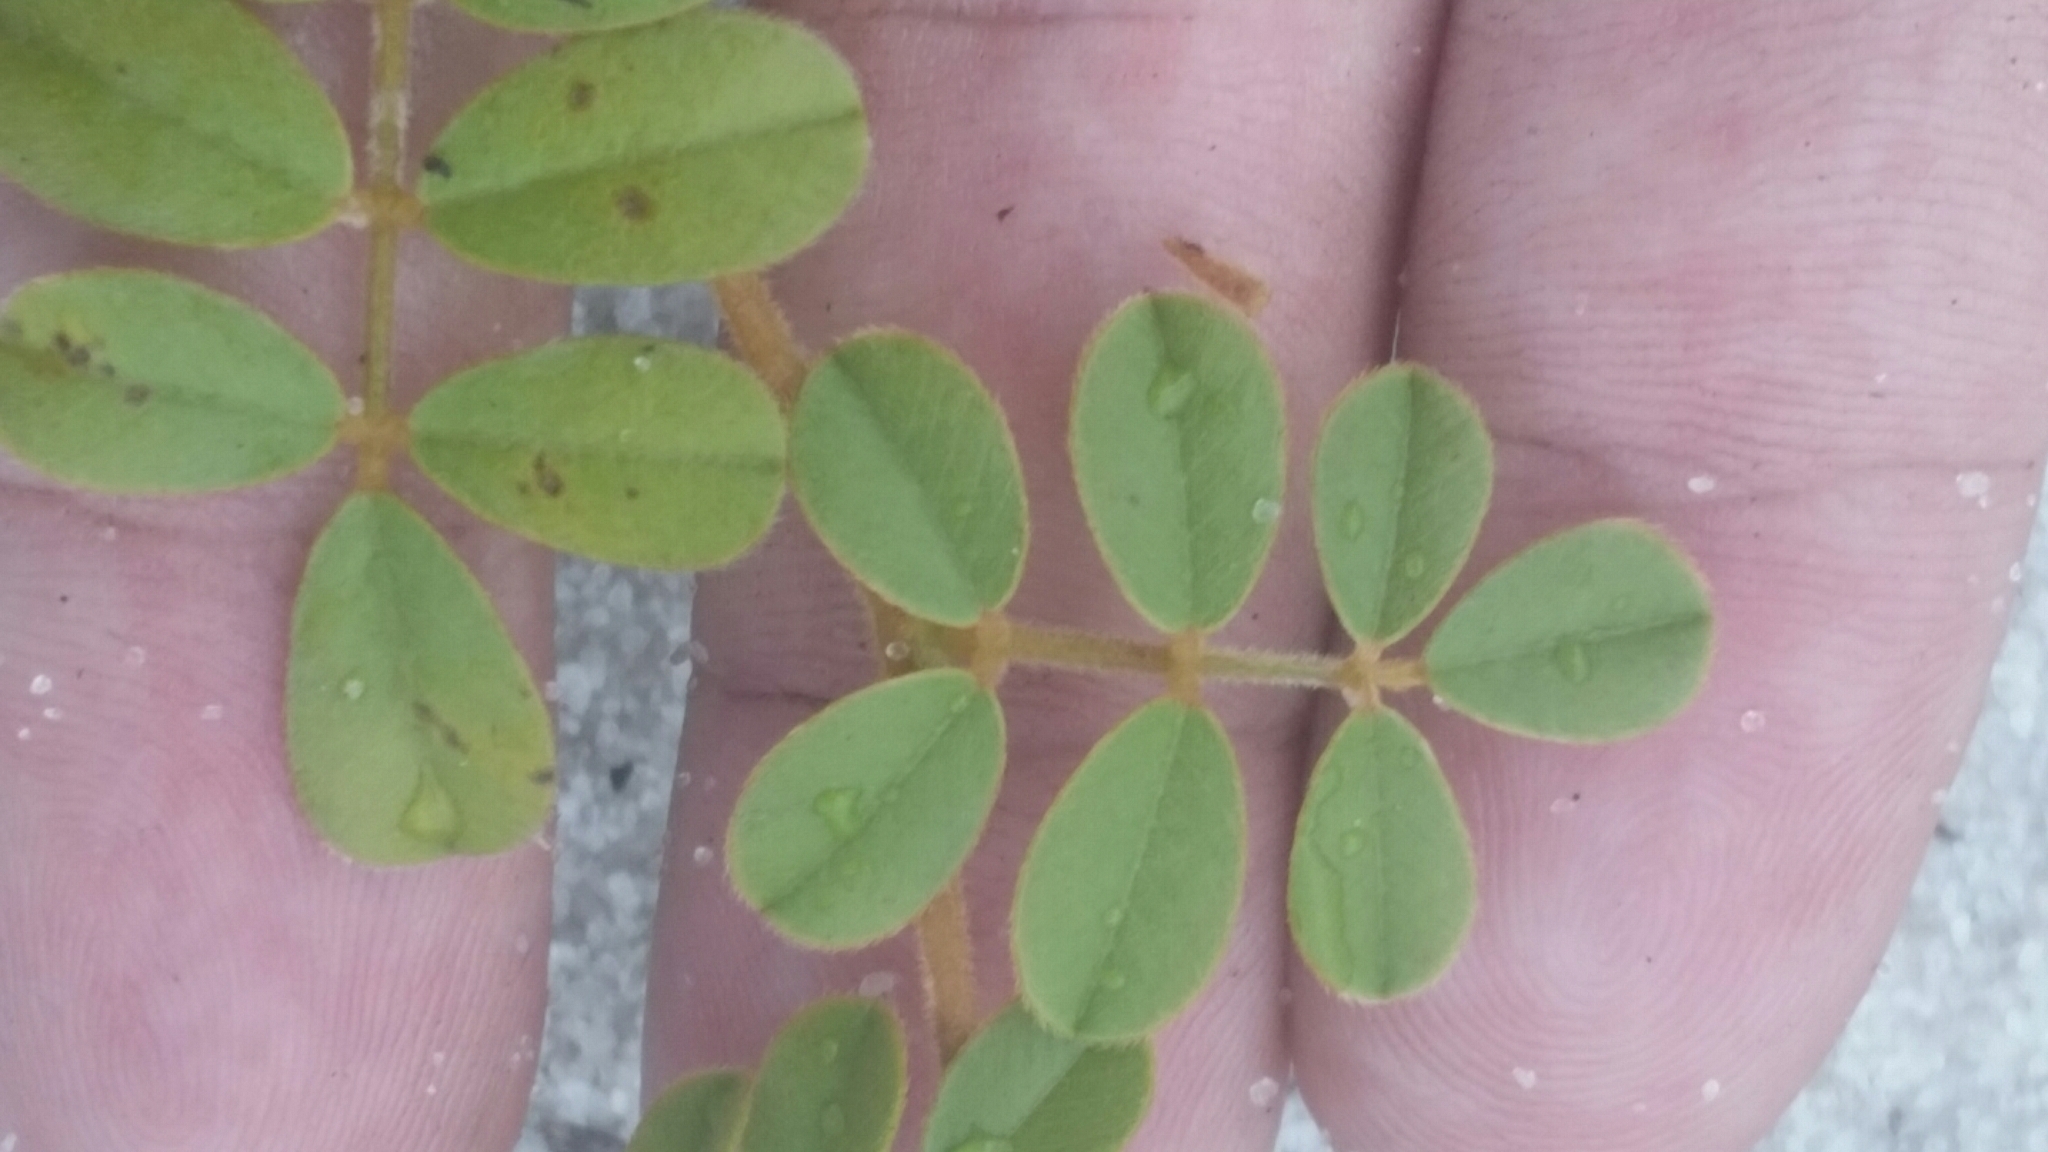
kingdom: Plantae
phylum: Tracheophyta
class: Magnoliopsida
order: Fabales
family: Fabaceae
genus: Tephrosia
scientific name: Tephrosia mysteriosa
